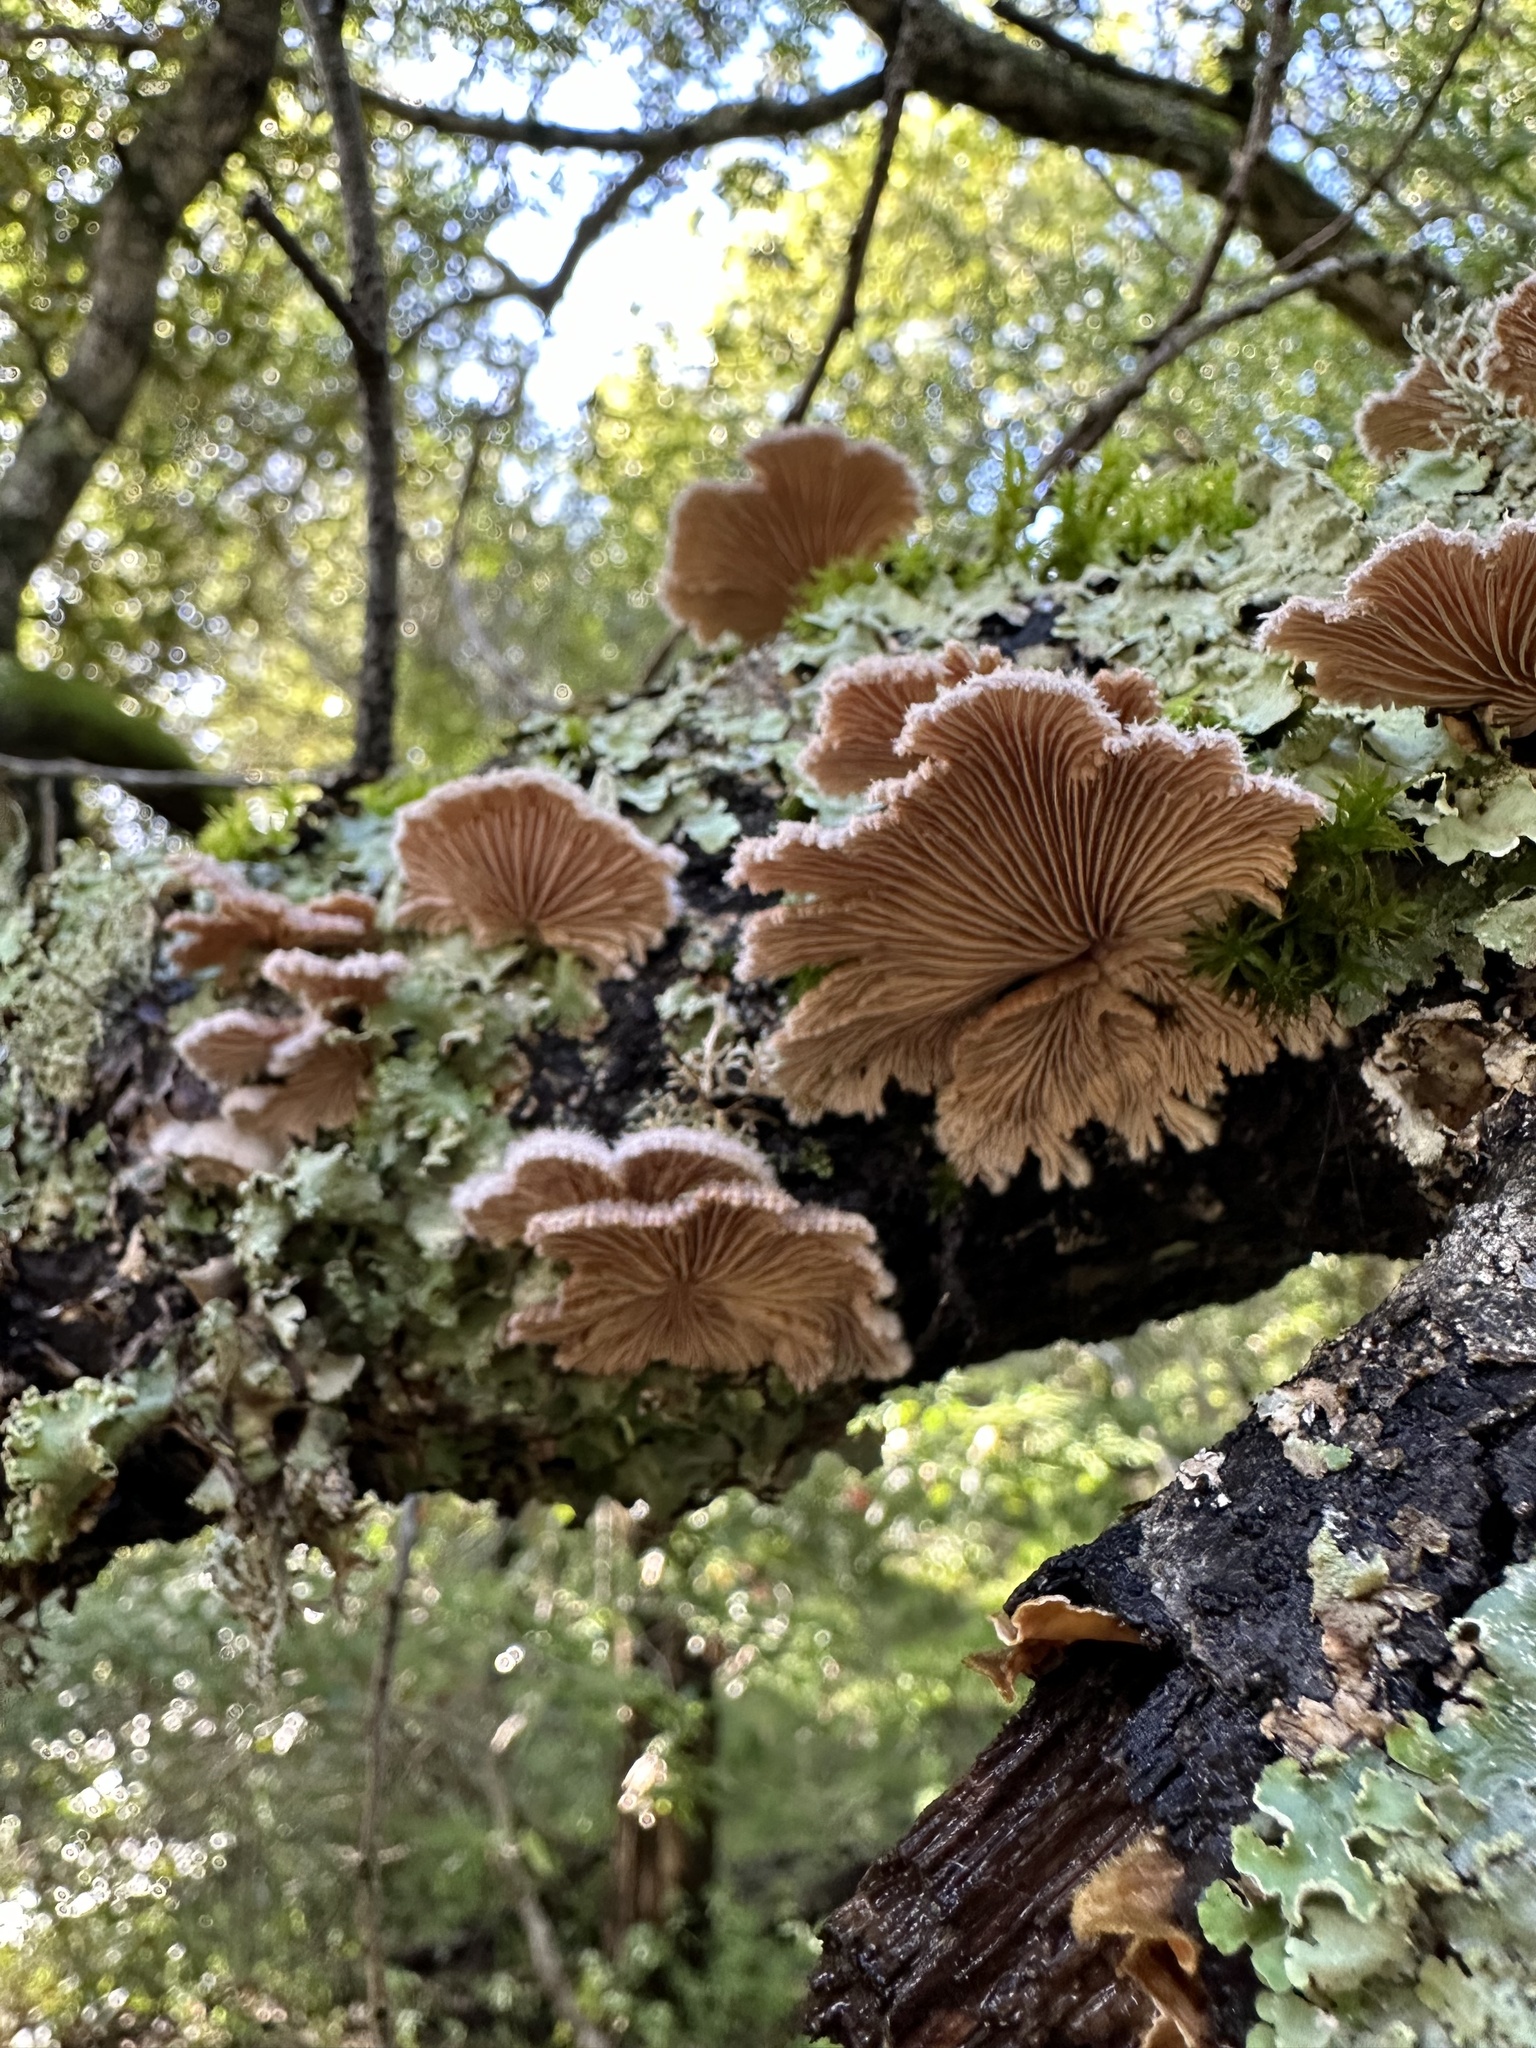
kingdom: Fungi
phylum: Basidiomycota
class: Agaricomycetes
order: Polyporales
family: Polyporaceae
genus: Lenzites
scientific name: Lenzites betulinus
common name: Birch mazegill
